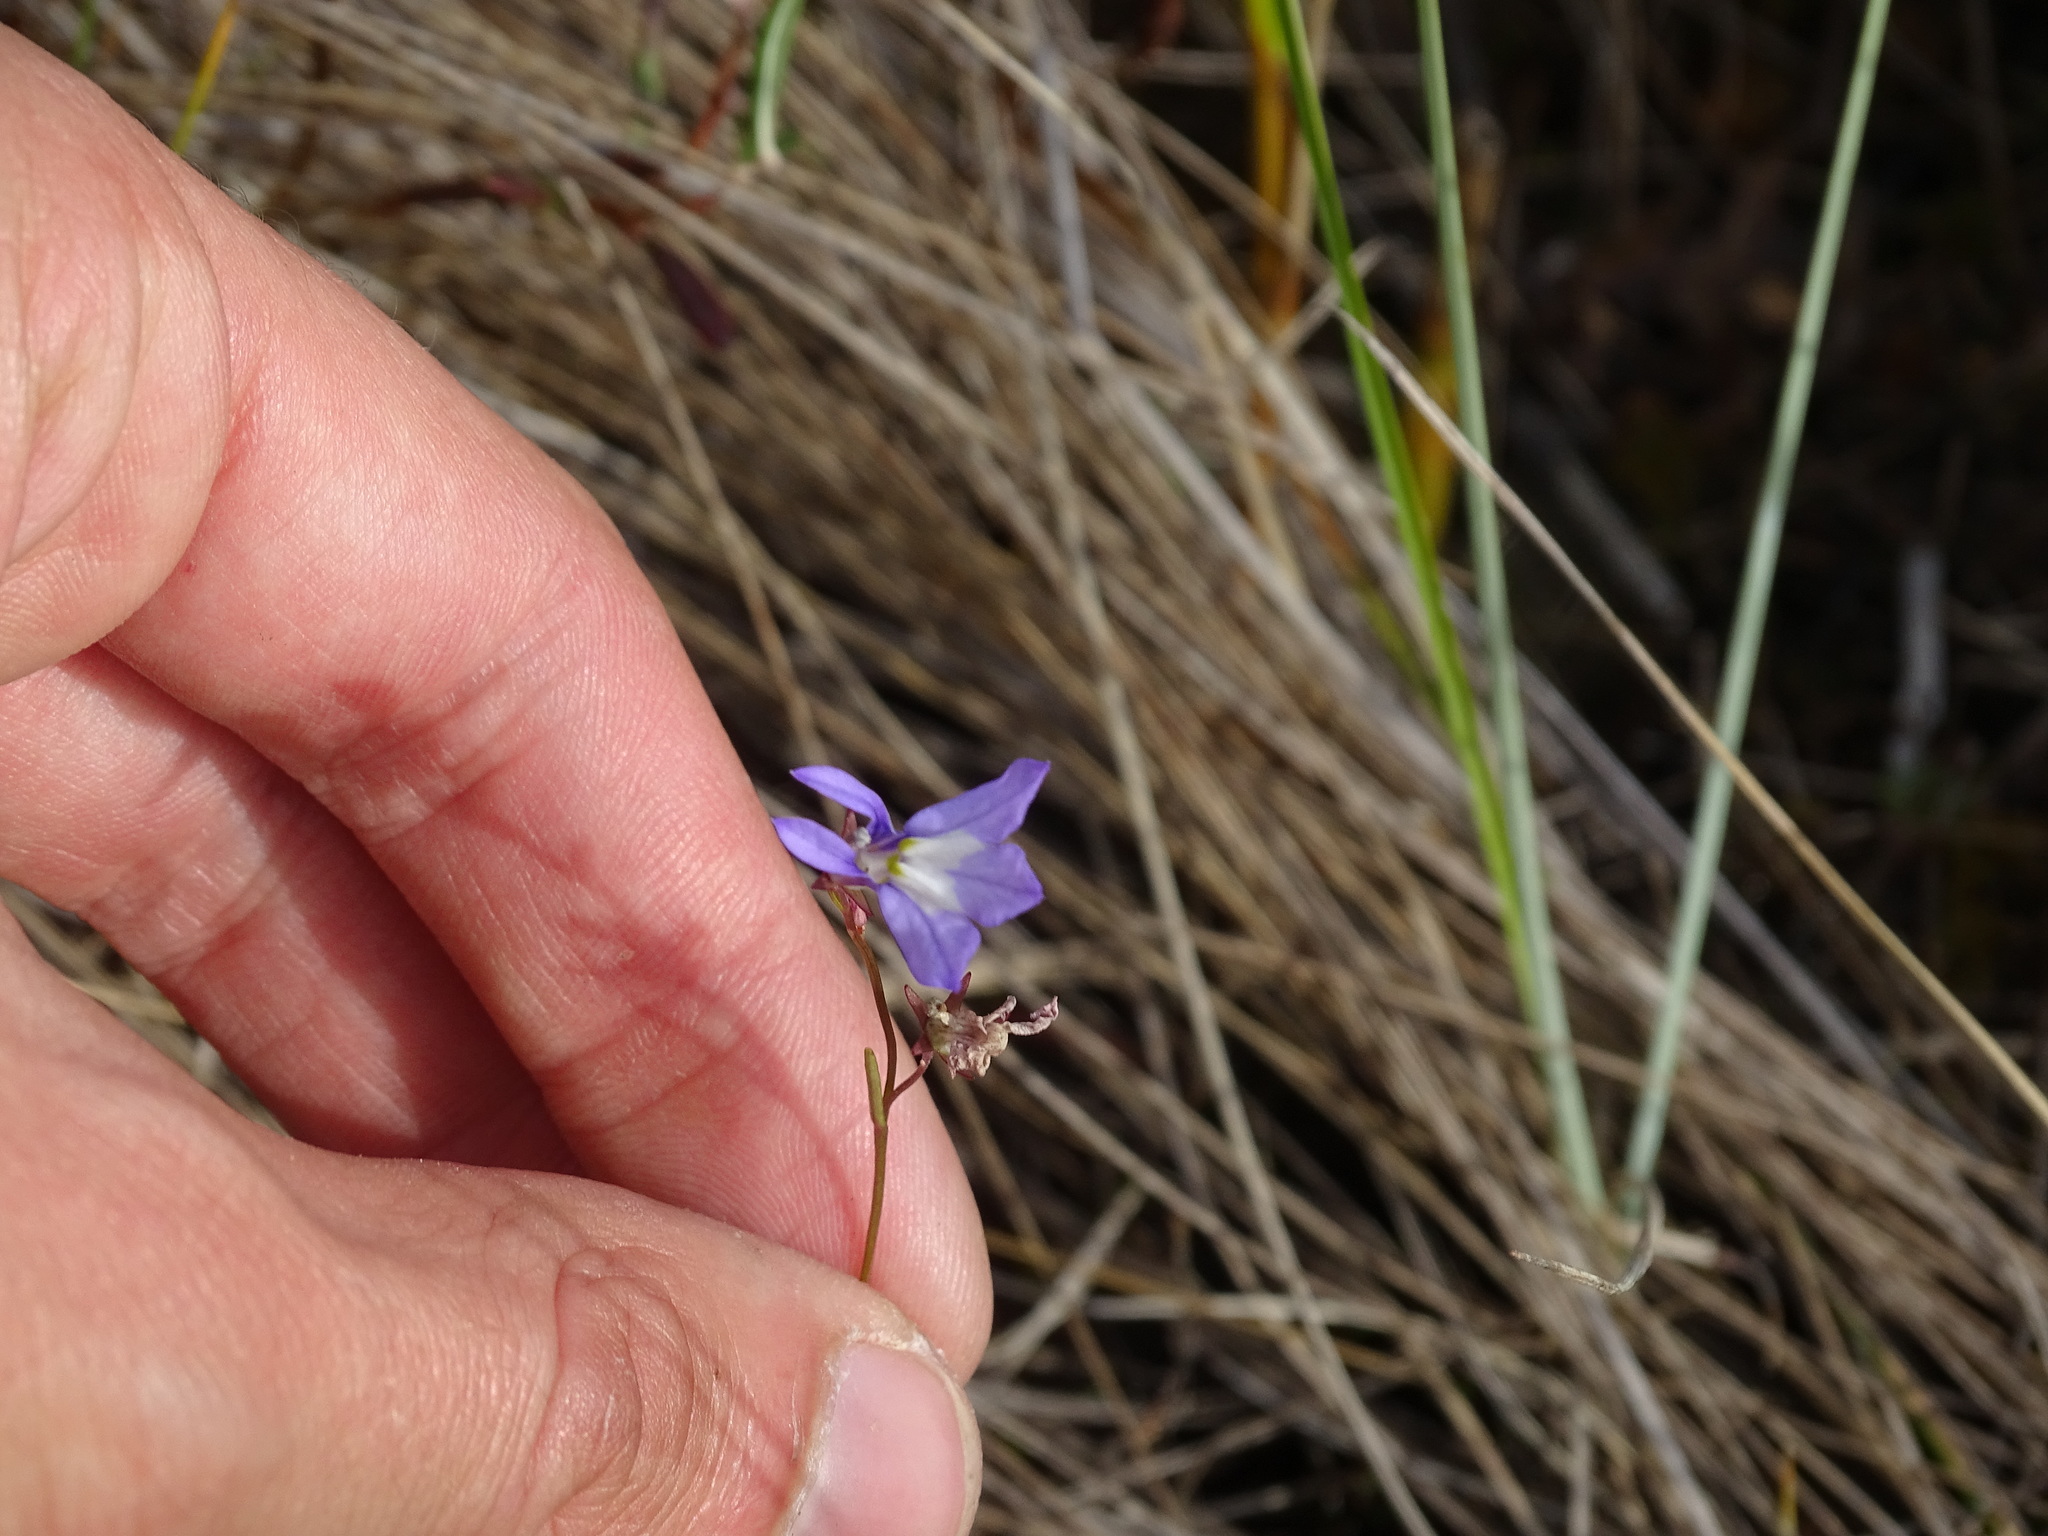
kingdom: Plantae
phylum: Tracheophyta
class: Magnoliopsida
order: Asterales
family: Campanulaceae
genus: Lobelia
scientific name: Lobelia kalmii
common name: Kalm's lobelia
